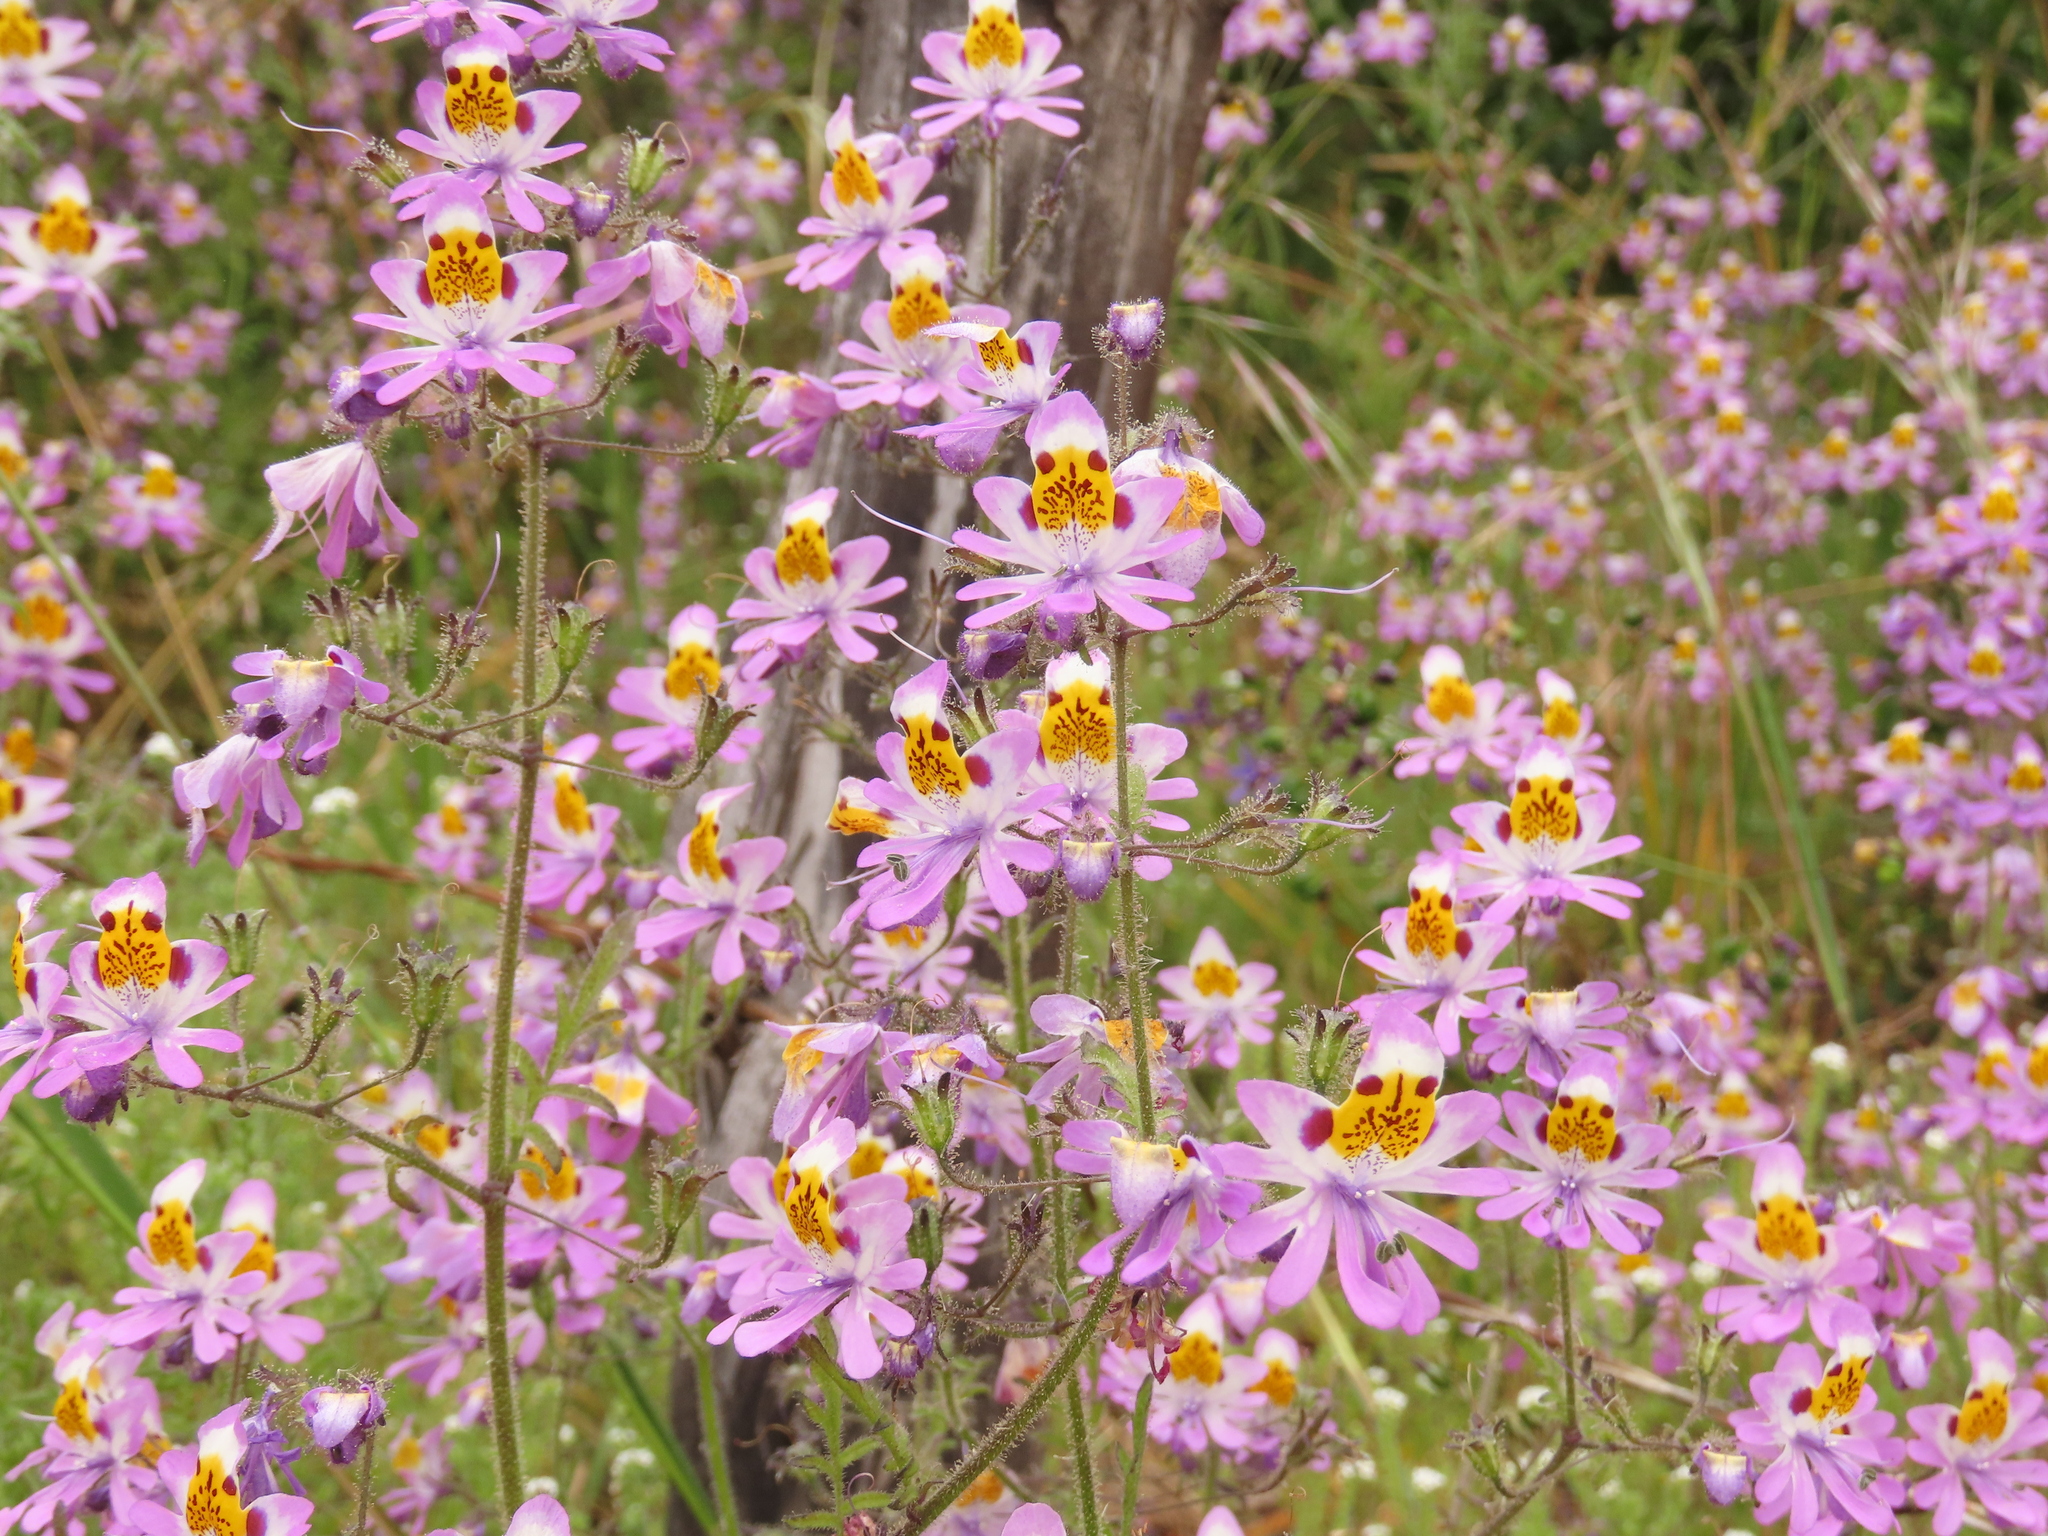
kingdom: Plantae
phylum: Tracheophyta
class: Magnoliopsida
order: Solanales
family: Solanaceae
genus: Schizanthus
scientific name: Schizanthus porrigens
